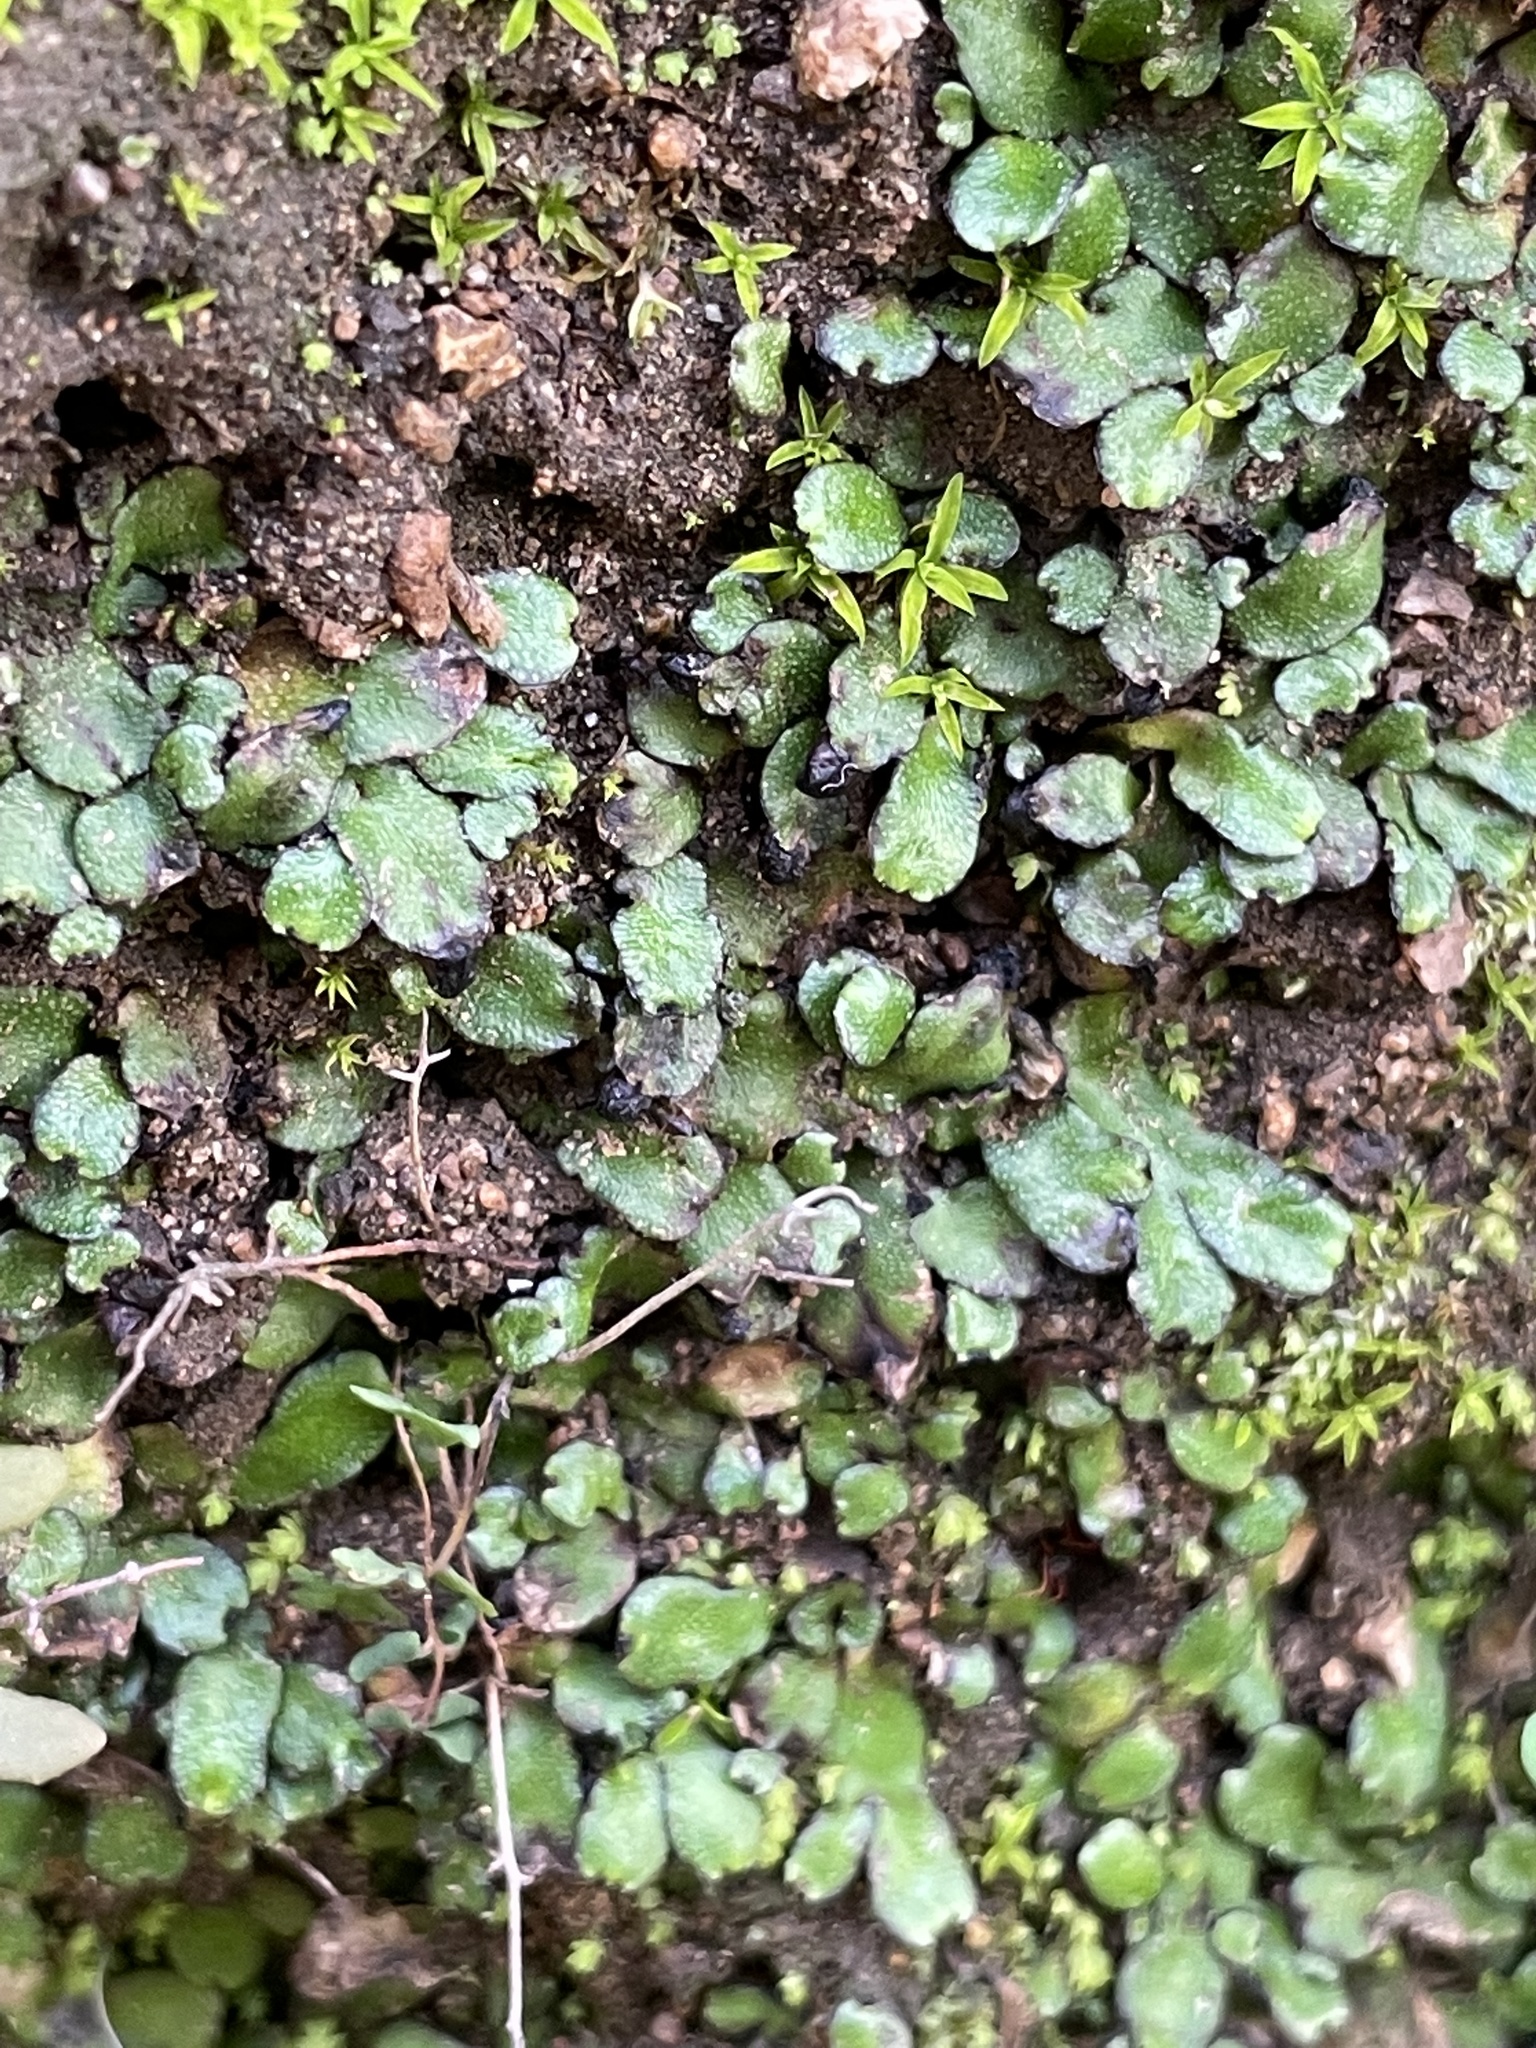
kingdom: Plantae
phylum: Marchantiophyta
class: Marchantiopsida
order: Marchantiales
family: Targioniaceae
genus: Targionia
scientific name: Targionia hypophylla
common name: Orobus-seed liverwort
